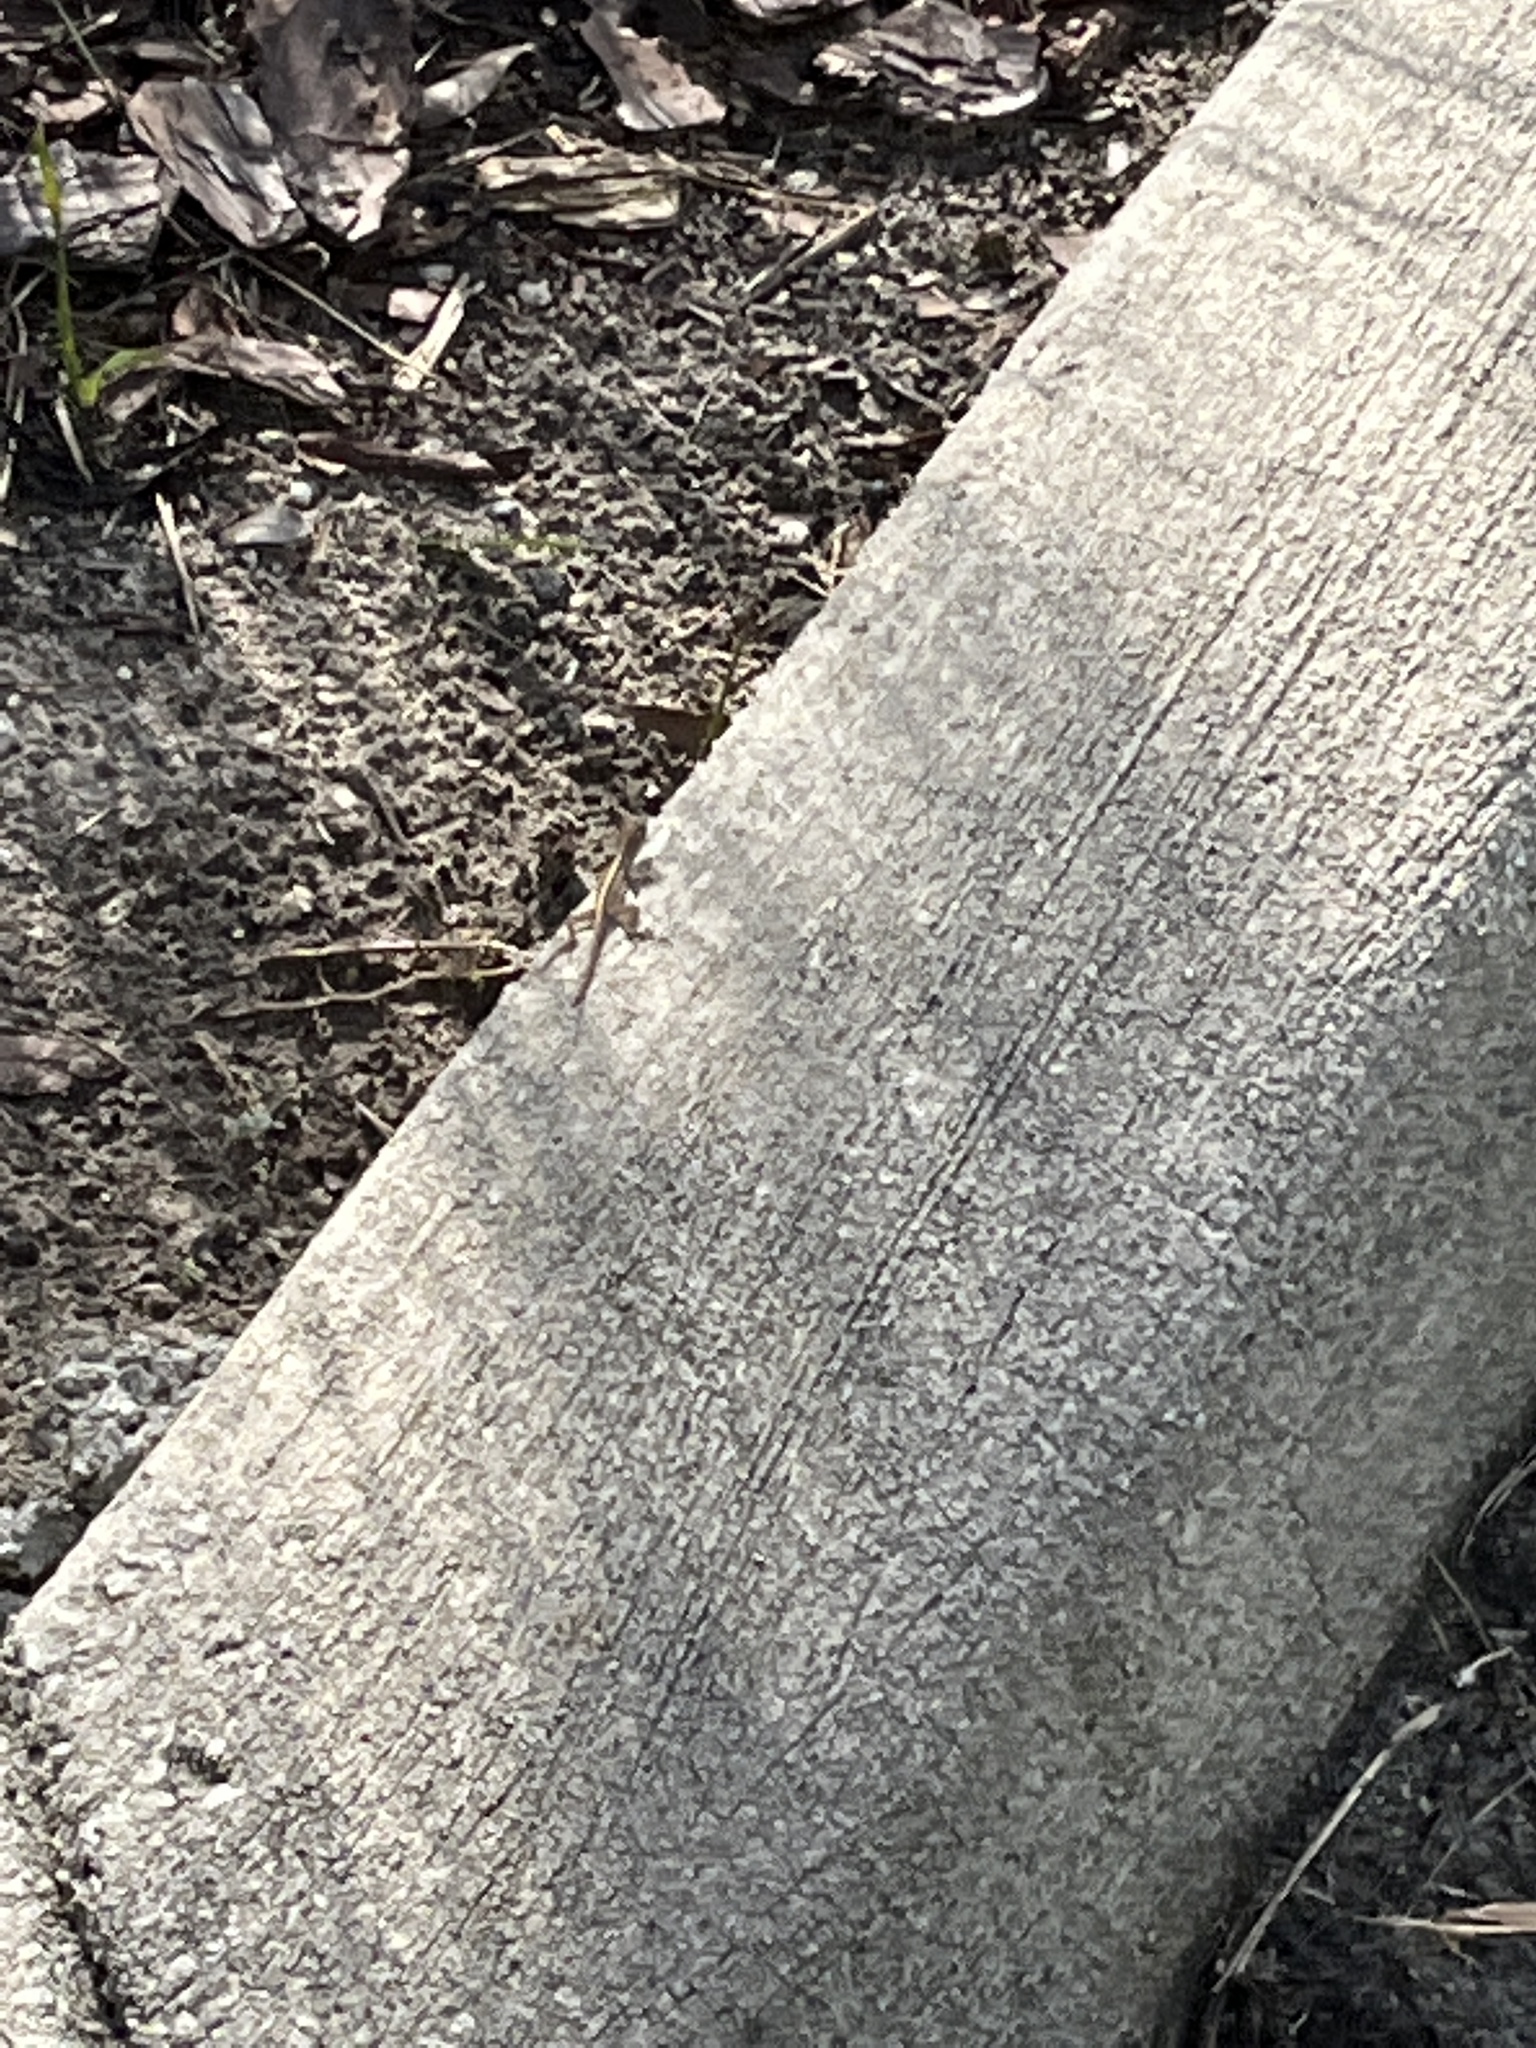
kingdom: Animalia
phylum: Chordata
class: Squamata
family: Dactyloidae
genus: Anolis
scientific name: Anolis sagrei
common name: Brown anole
